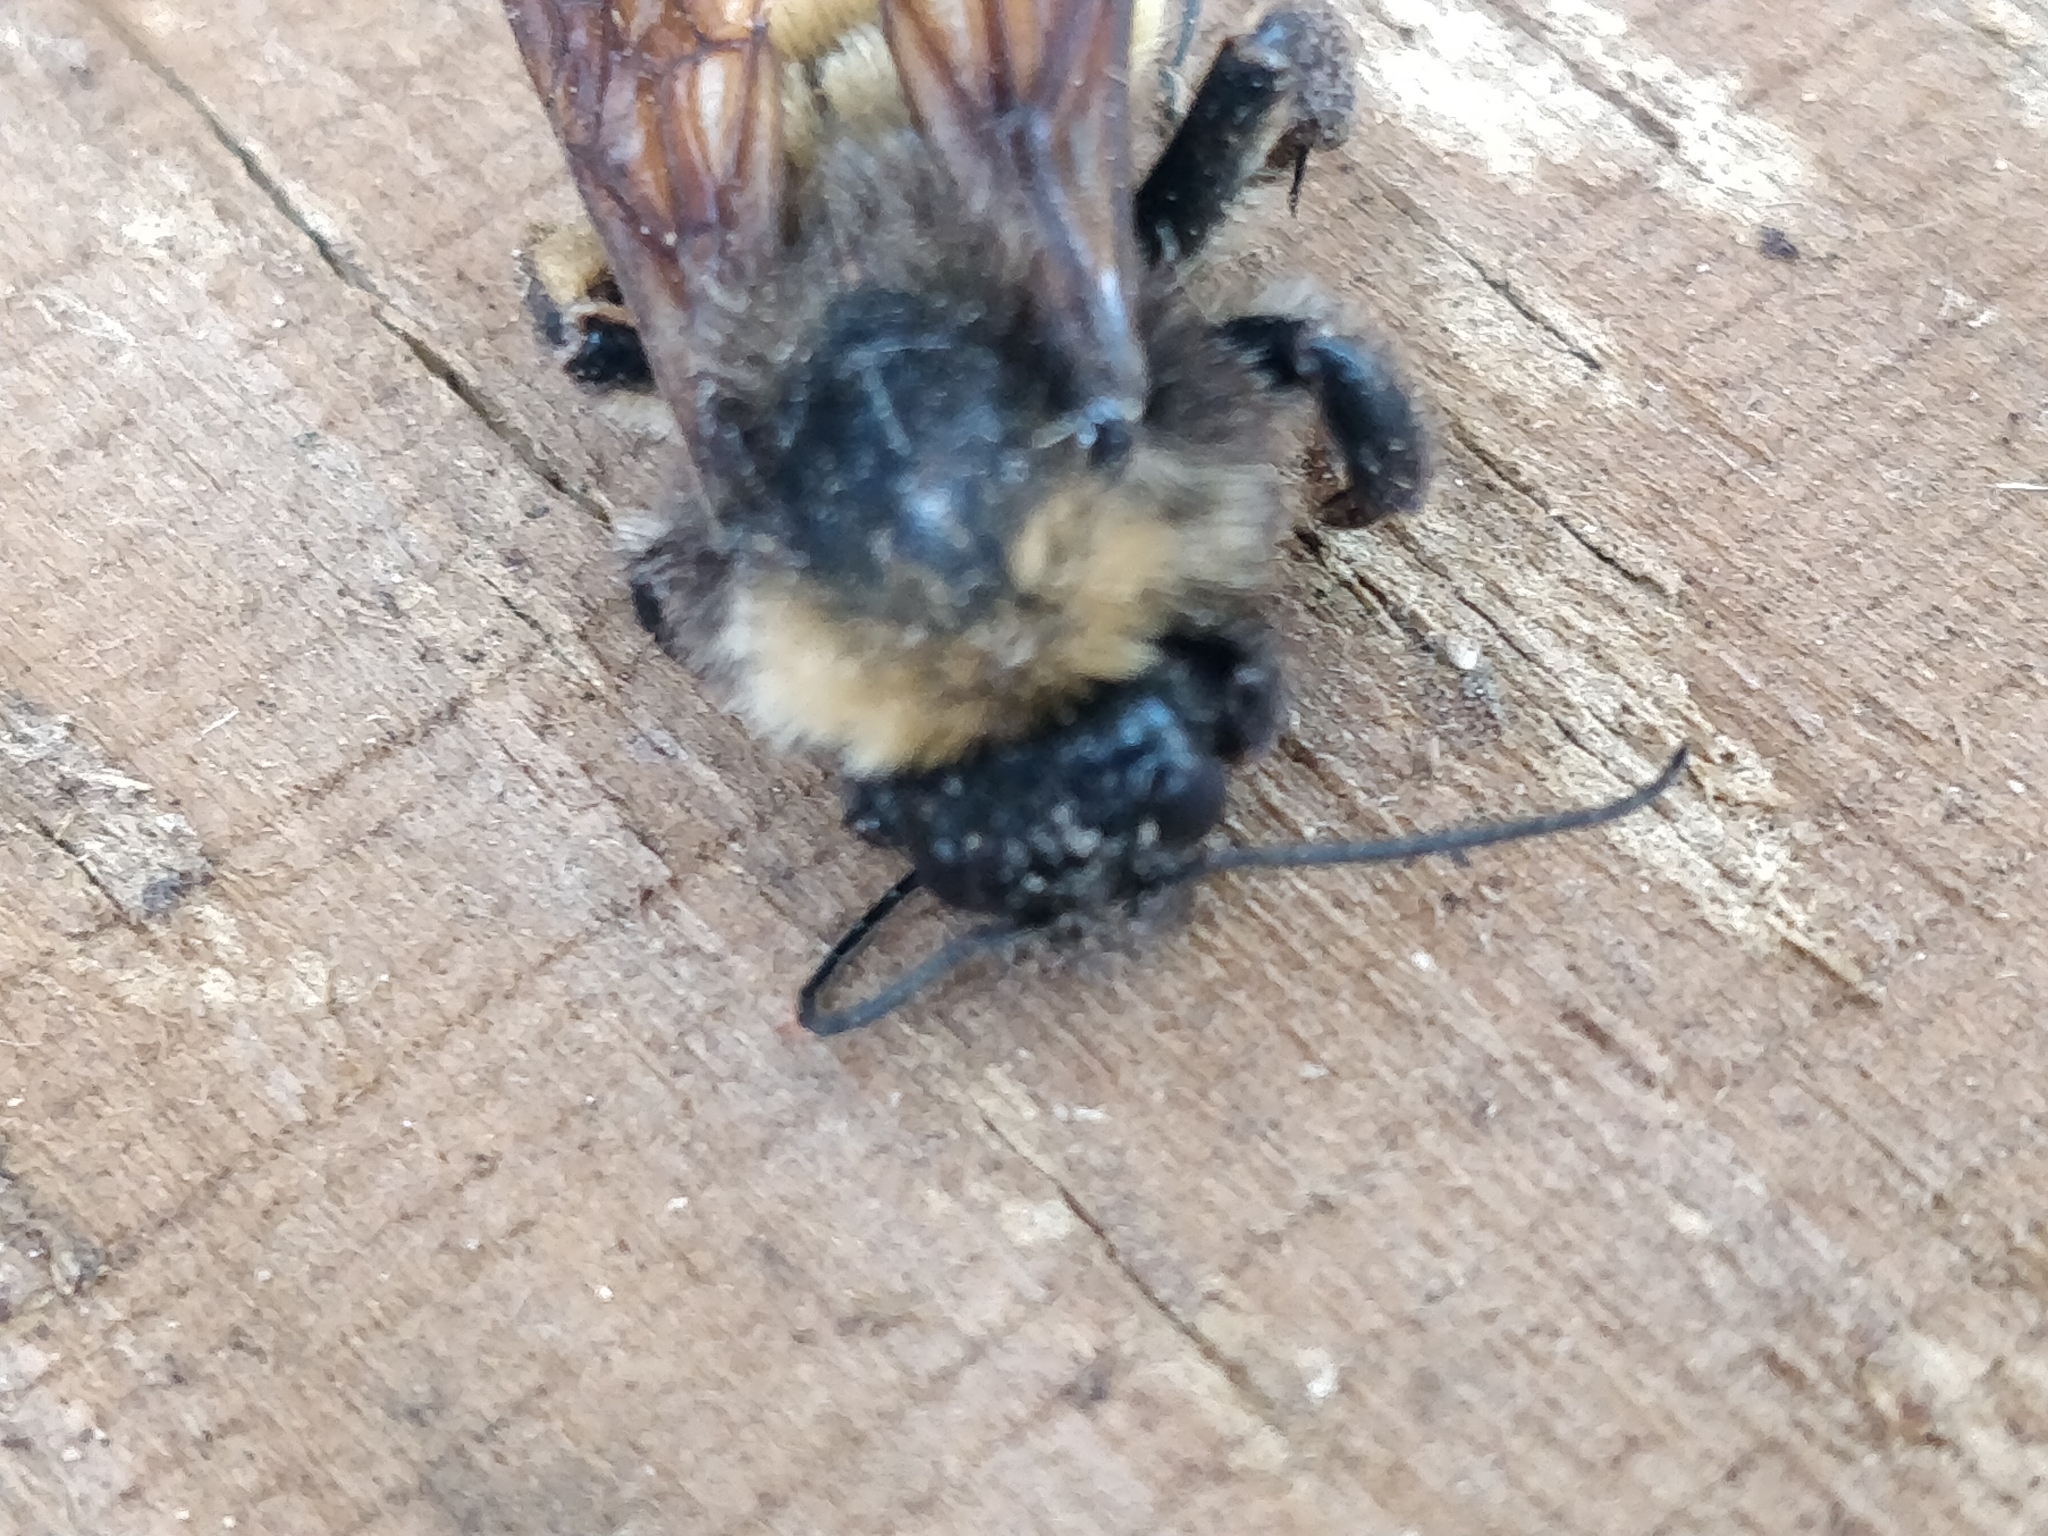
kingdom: Animalia
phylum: Arthropoda
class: Insecta
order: Hymenoptera
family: Apidae
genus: Bombus
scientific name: Bombus pensylvanicus
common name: Bumble bee
